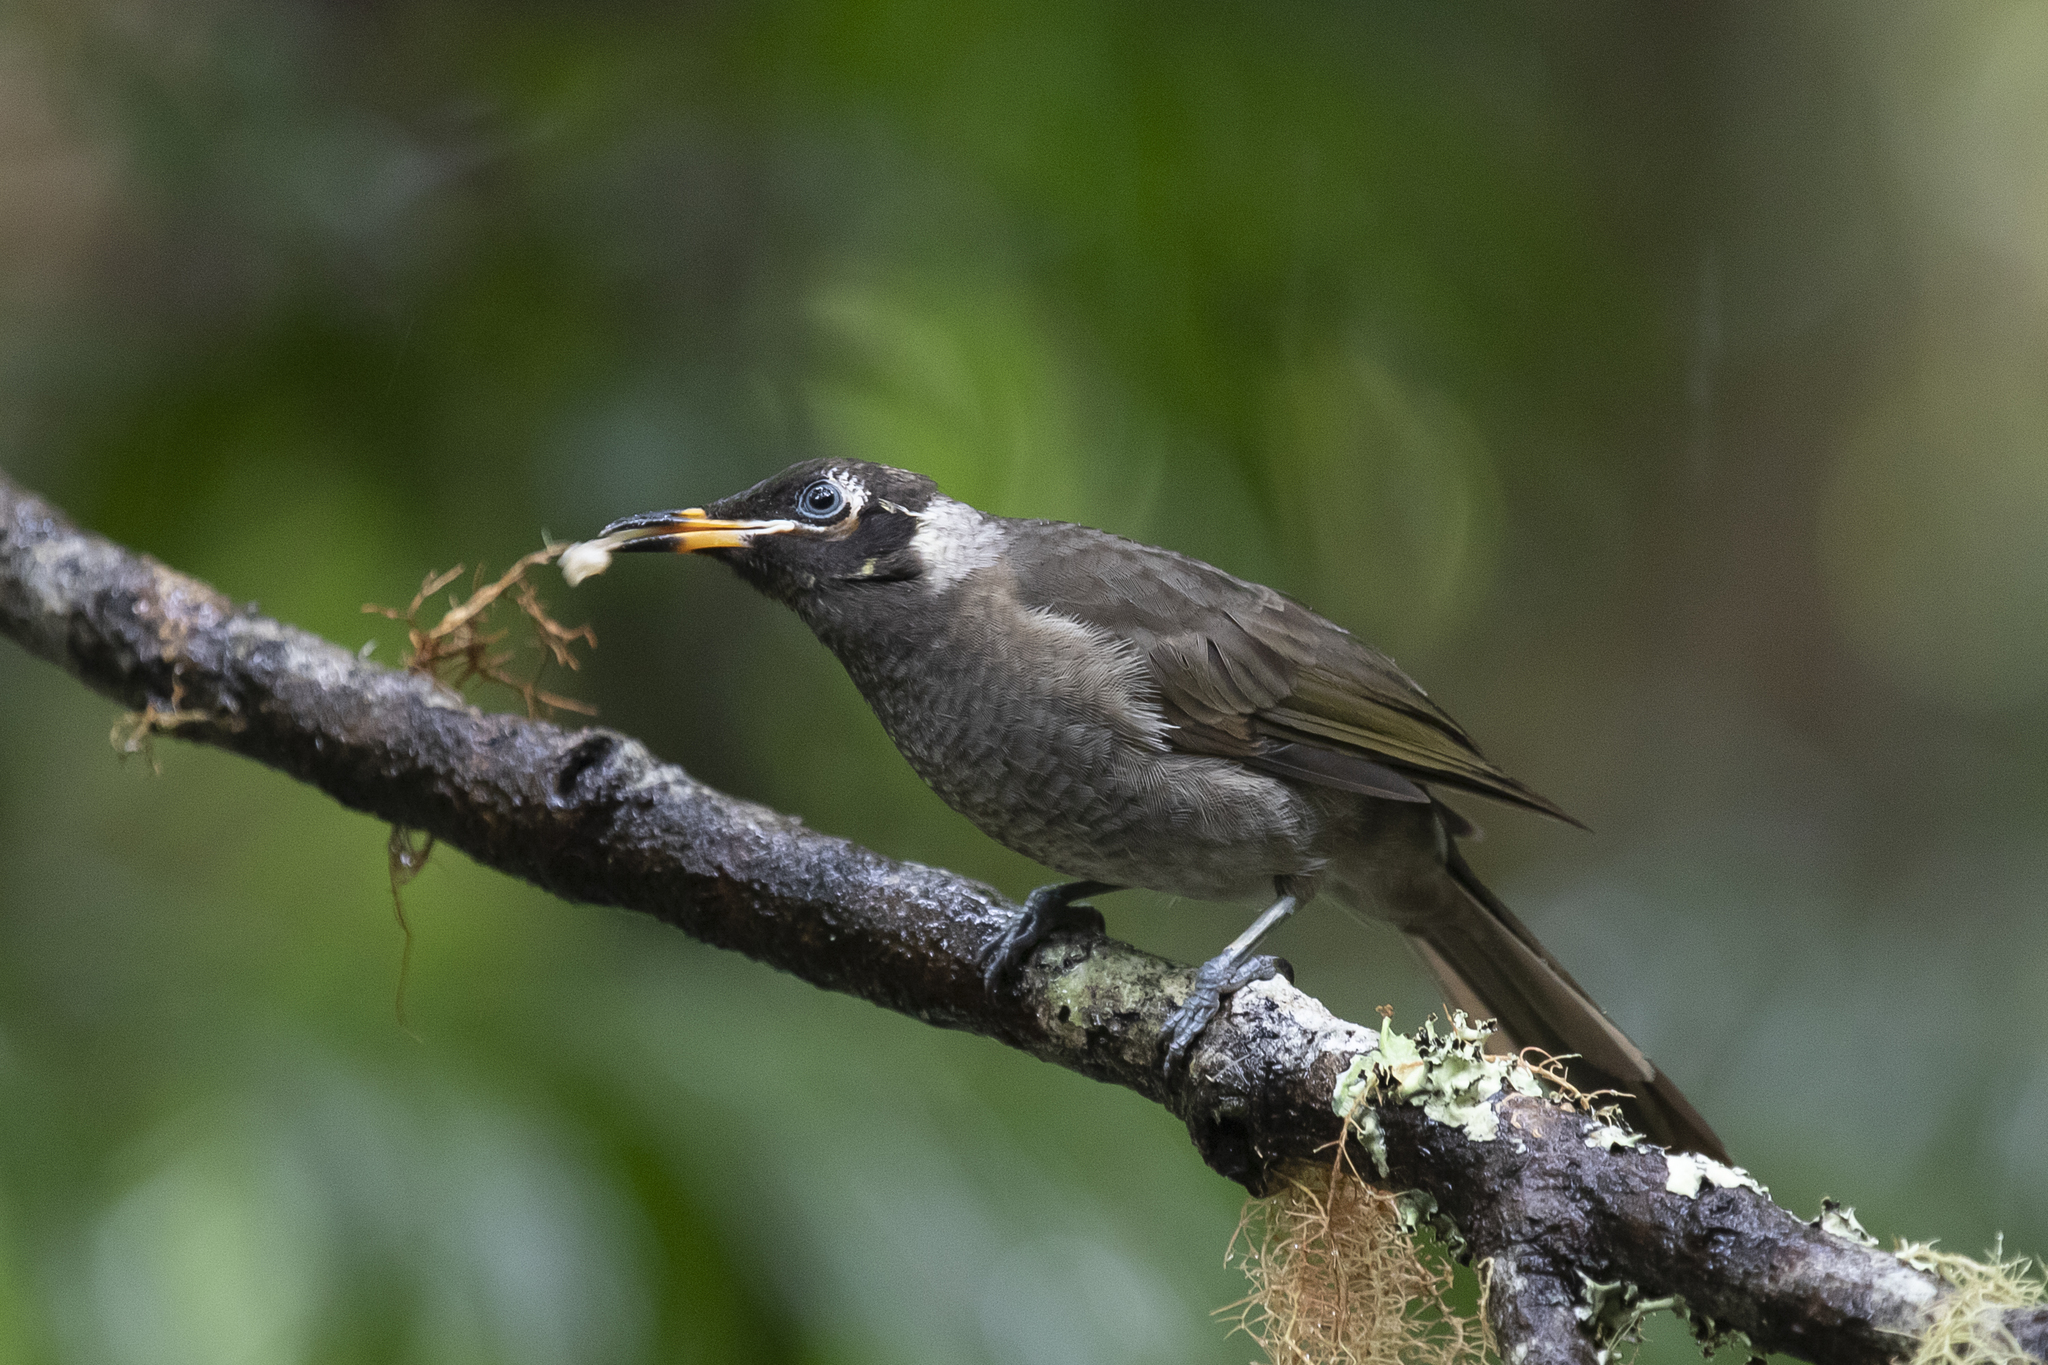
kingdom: Animalia
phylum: Chordata
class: Aves
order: Passeriformes
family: Meliphagidae
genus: Bolemoreus
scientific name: Bolemoreus frenatus
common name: Bridled honeyeater
